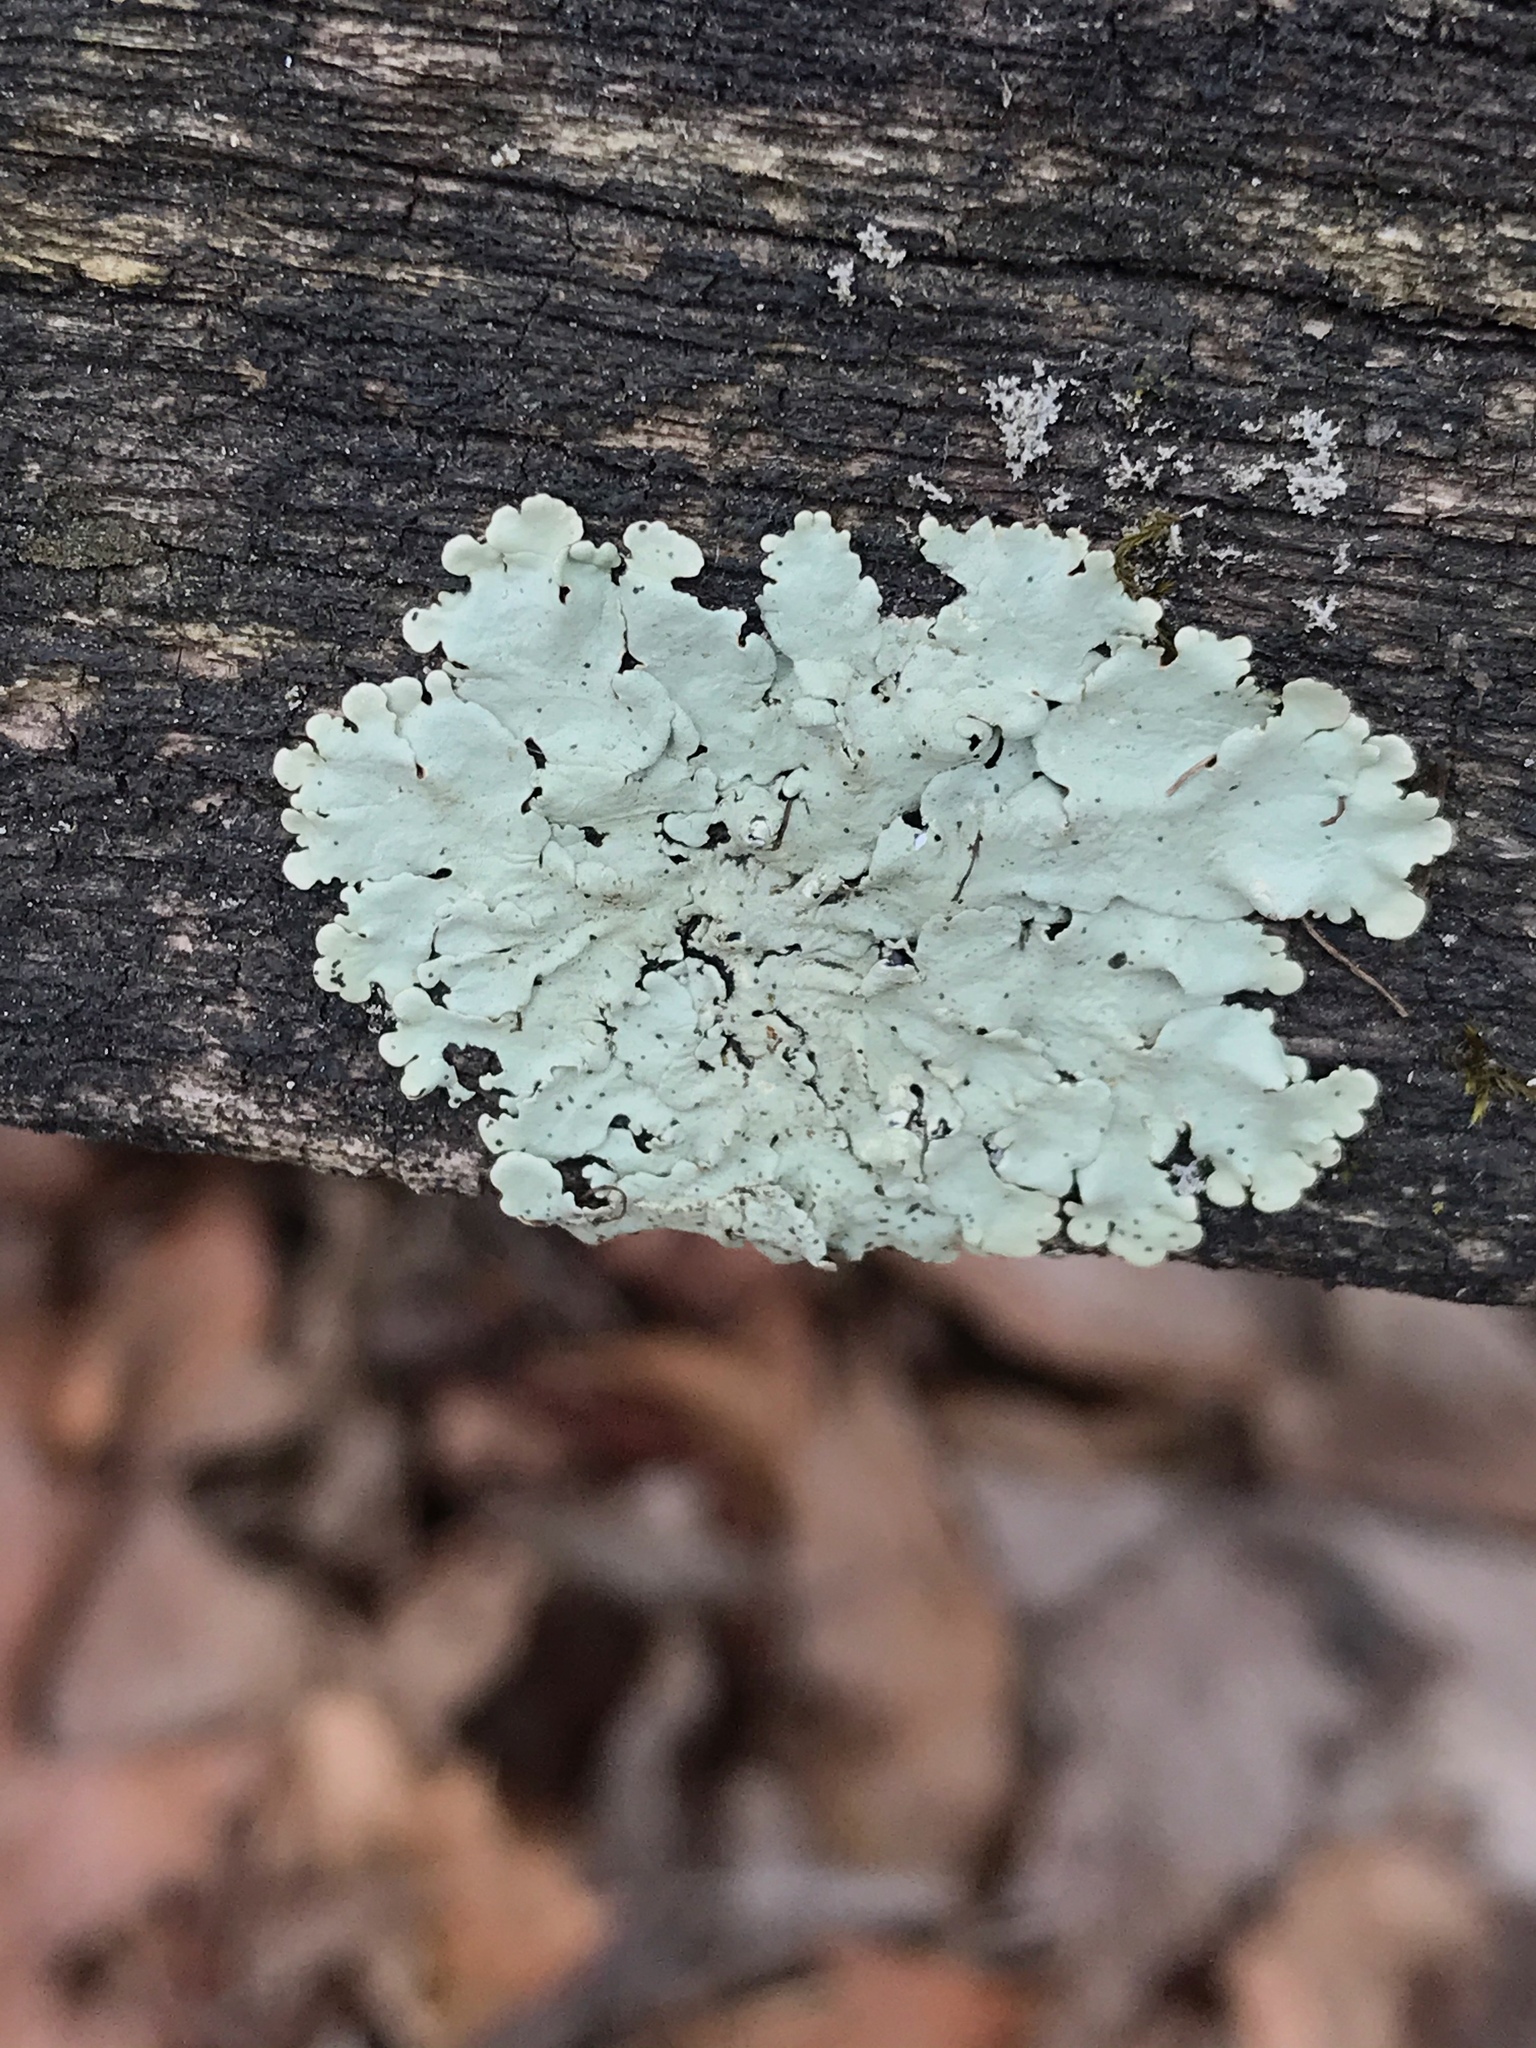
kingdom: Fungi
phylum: Ascomycota
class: Lecanoromycetes
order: Lecanorales
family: Parmeliaceae
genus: Flavoparmelia
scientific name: Flavoparmelia caperata
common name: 40-mile per hour lichen
